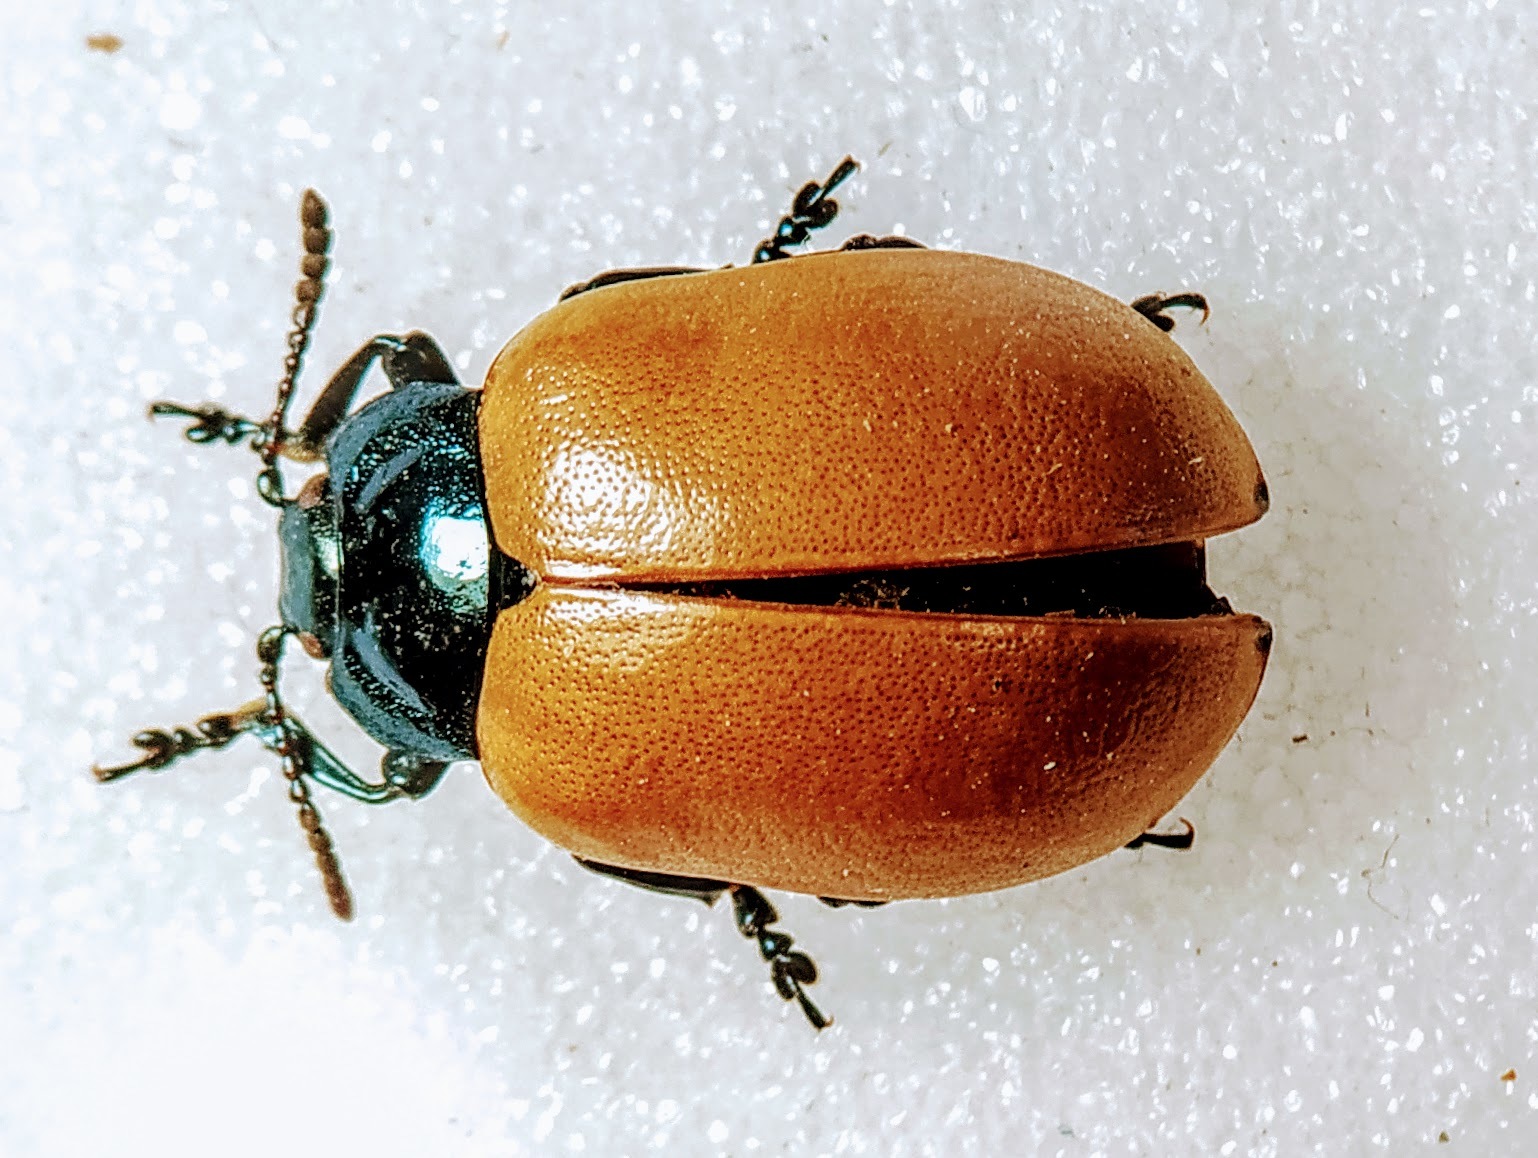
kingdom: Animalia
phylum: Arthropoda
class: Insecta
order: Coleoptera
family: Chrysomelidae
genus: Chrysomela
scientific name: Chrysomela populi
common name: Red poplar leaf beetle
